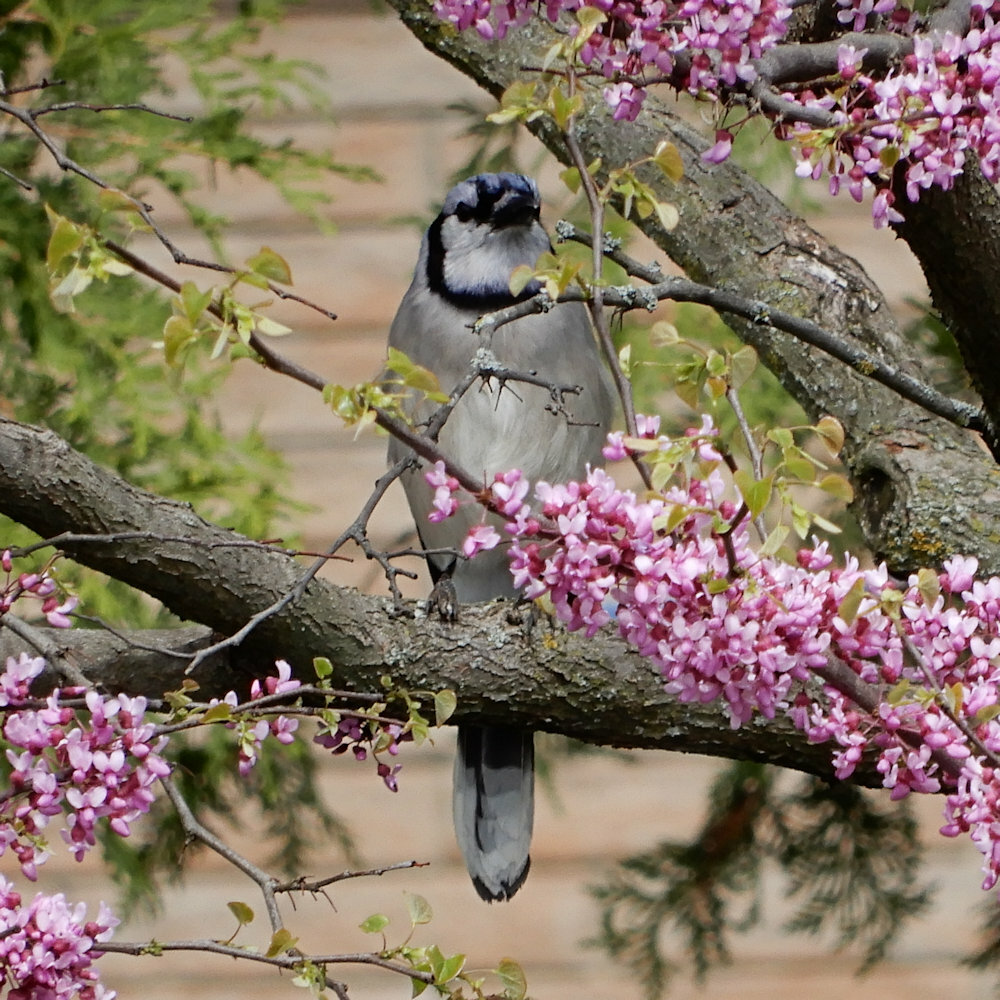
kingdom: Animalia
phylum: Chordata
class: Aves
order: Passeriformes
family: Corvidae
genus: Cyanocitta
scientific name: Cyanocitta cristata
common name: Blue jay
